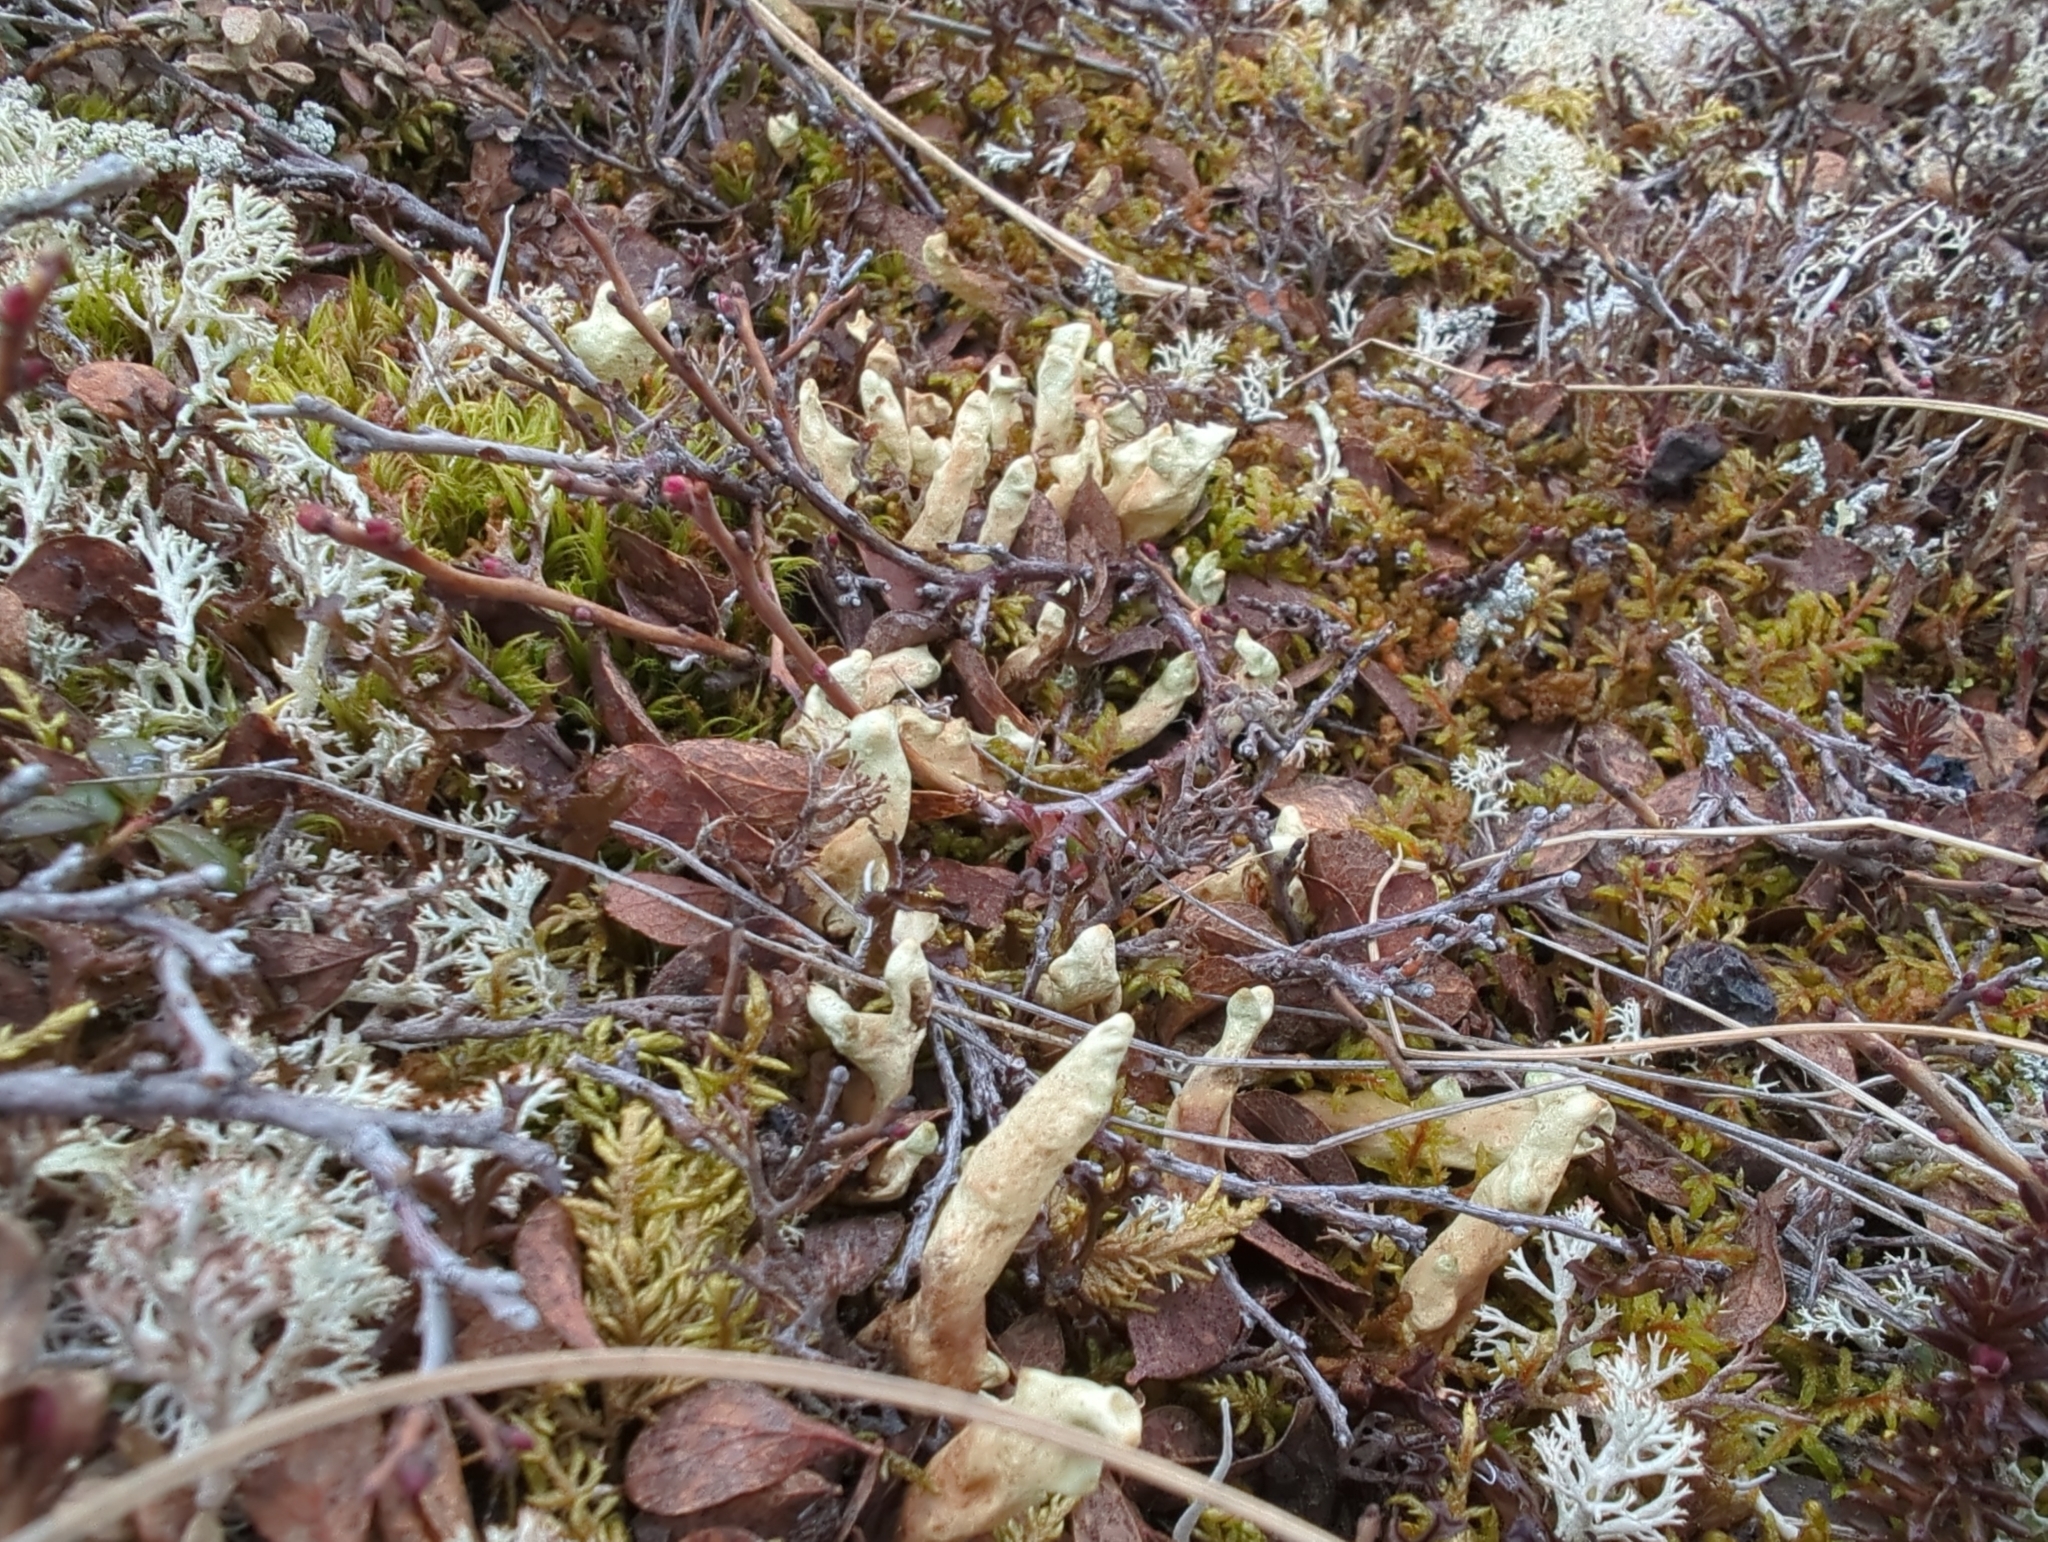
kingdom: Fungi
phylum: Ascomycota
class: Lecanoromycetes
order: Lecanorales
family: Parmeliaceae
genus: Dactylina
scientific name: Dactylina arctica
